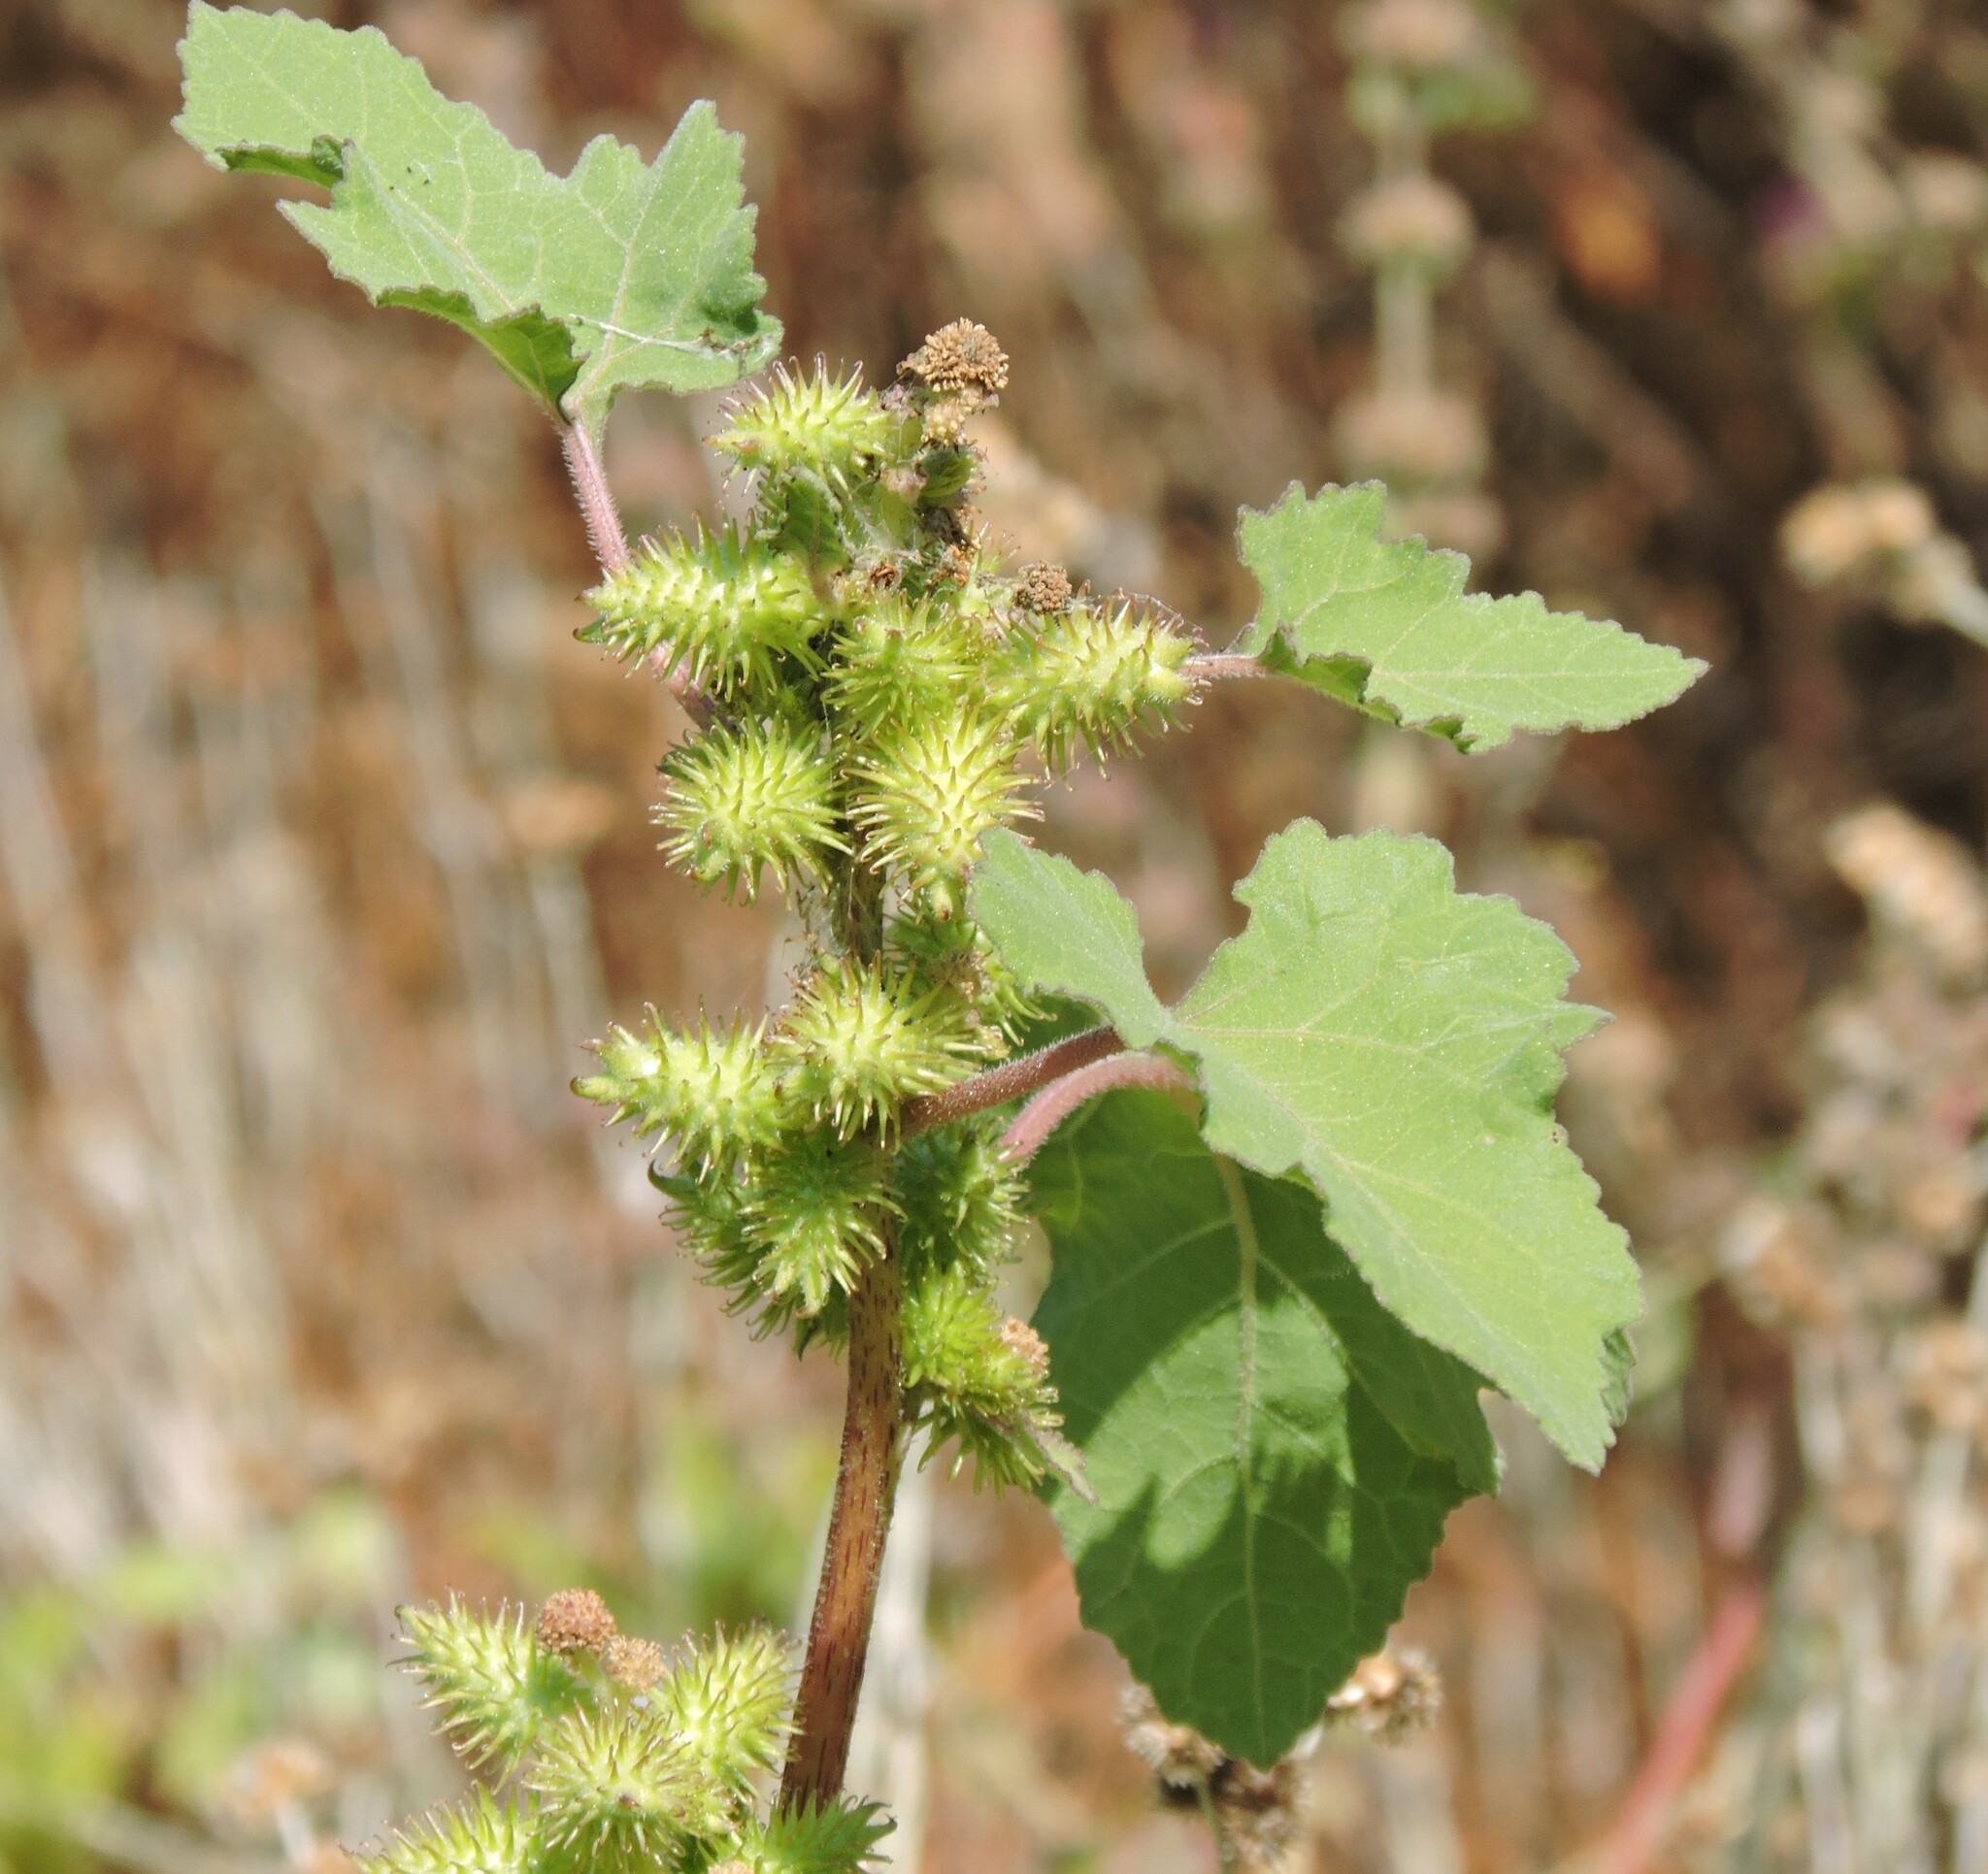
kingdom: Plantae
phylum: Tracheophyta
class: Magnoliopsida
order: Asterales
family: Asteraceae
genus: Xanthium
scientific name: Xanthium strumarium
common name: Rough cocklebur
